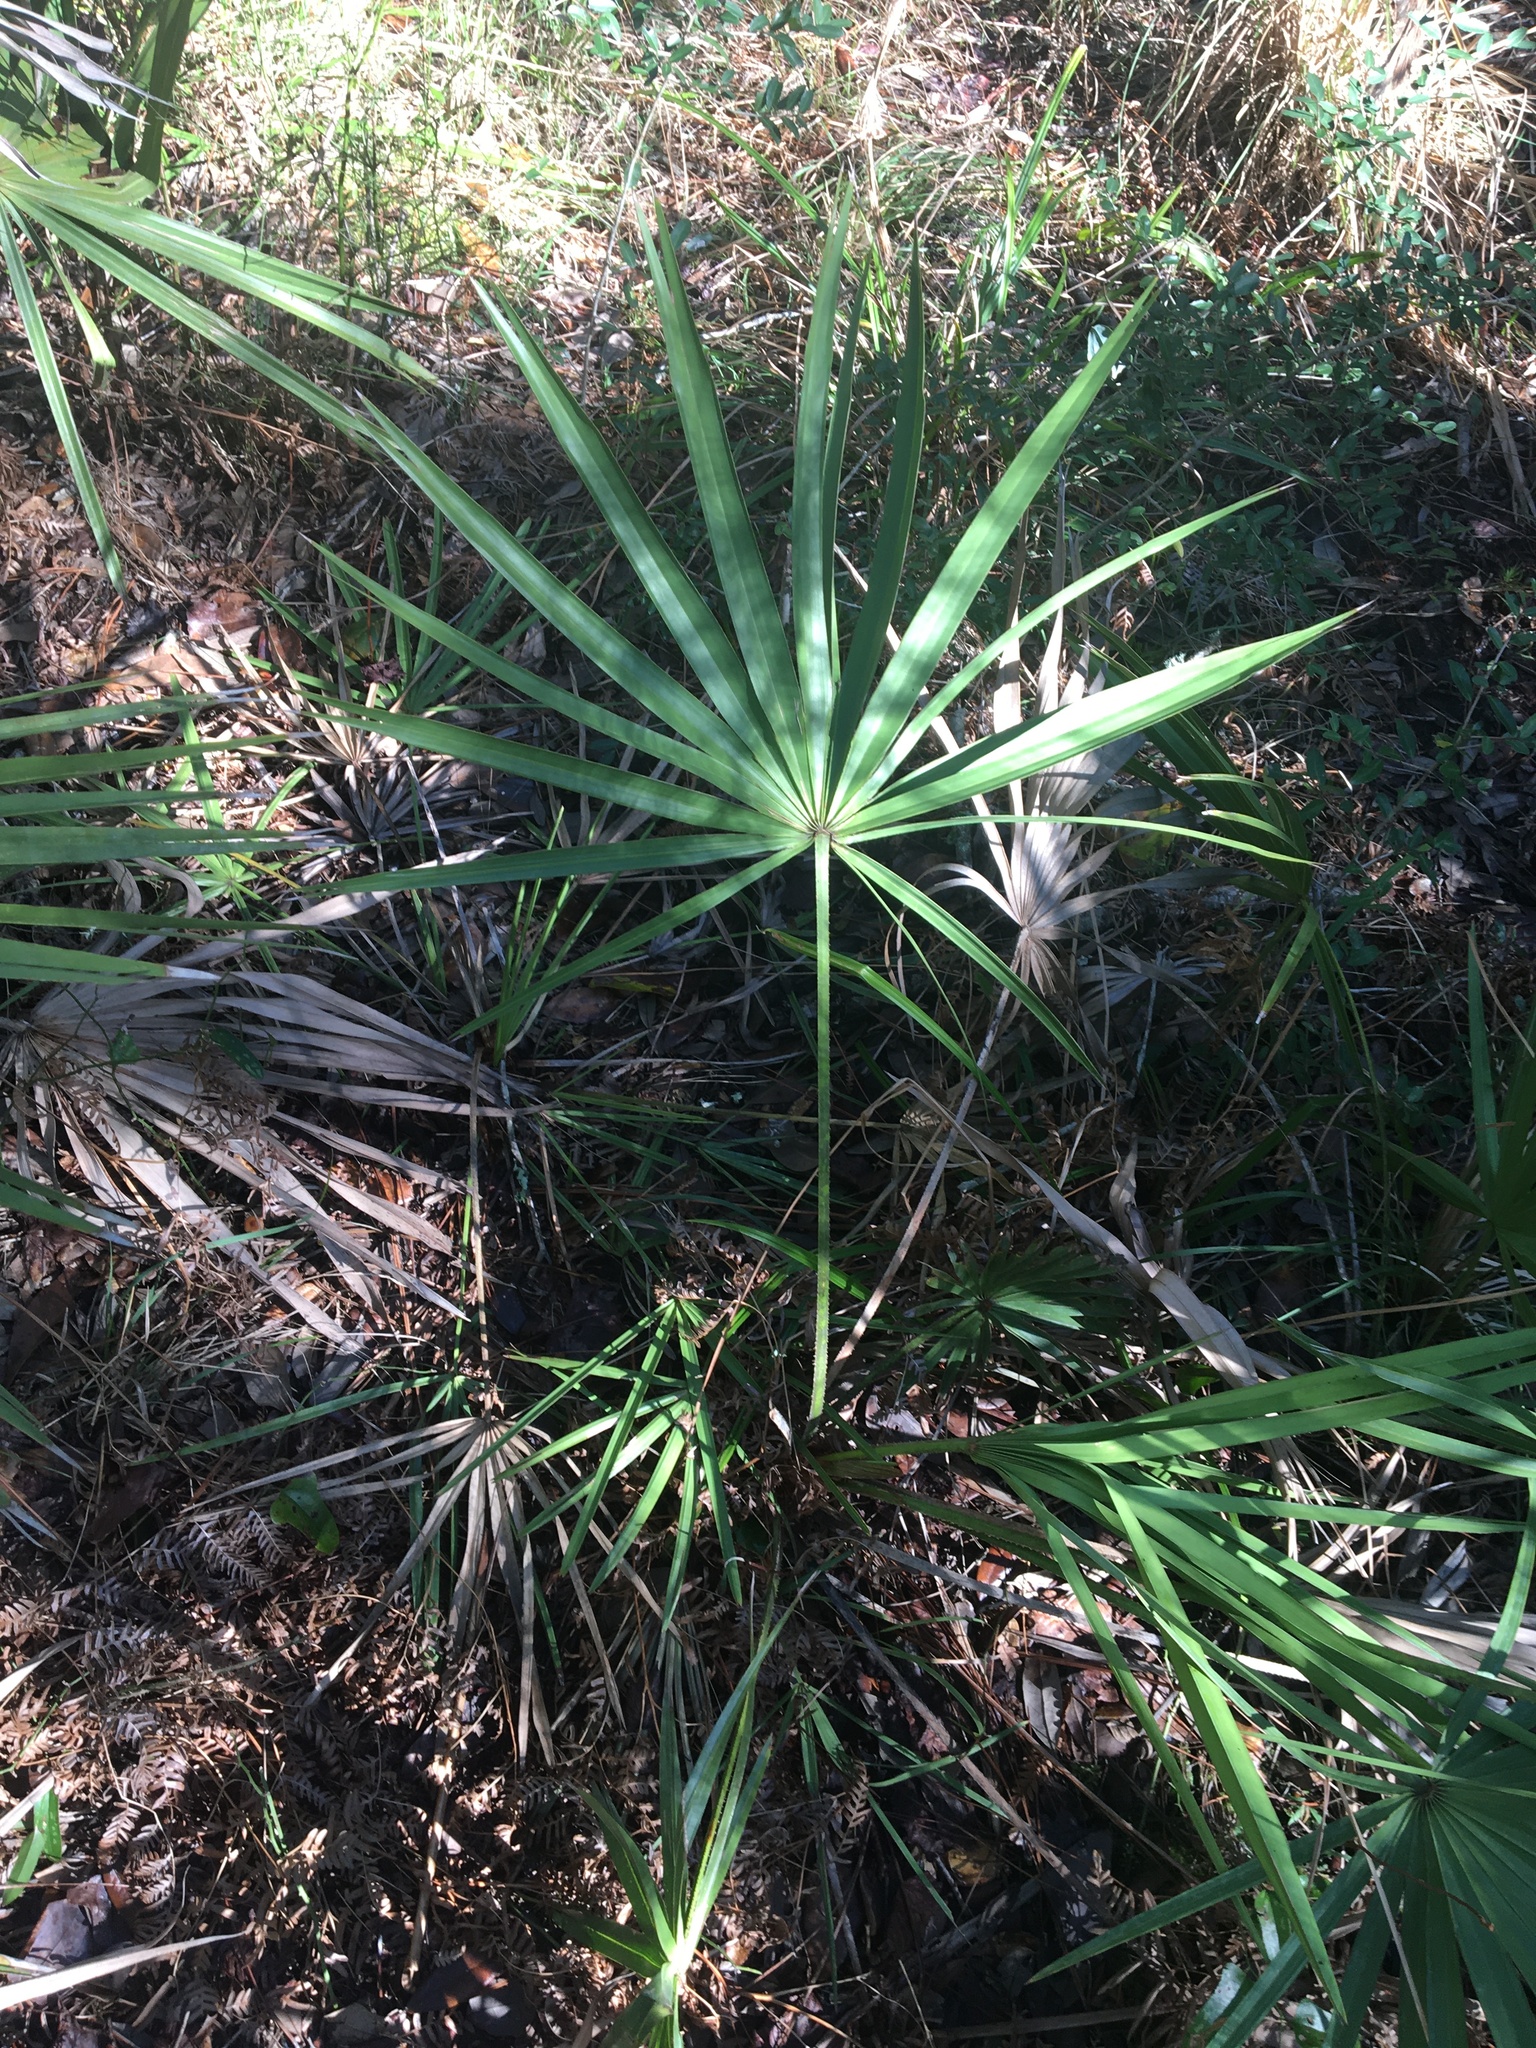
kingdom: Plantae
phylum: Tracheophyta
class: Liliopsida
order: Arecales
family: Arecaceae
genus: Serenoa
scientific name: Serenoa repens
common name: Saw-palmetto
